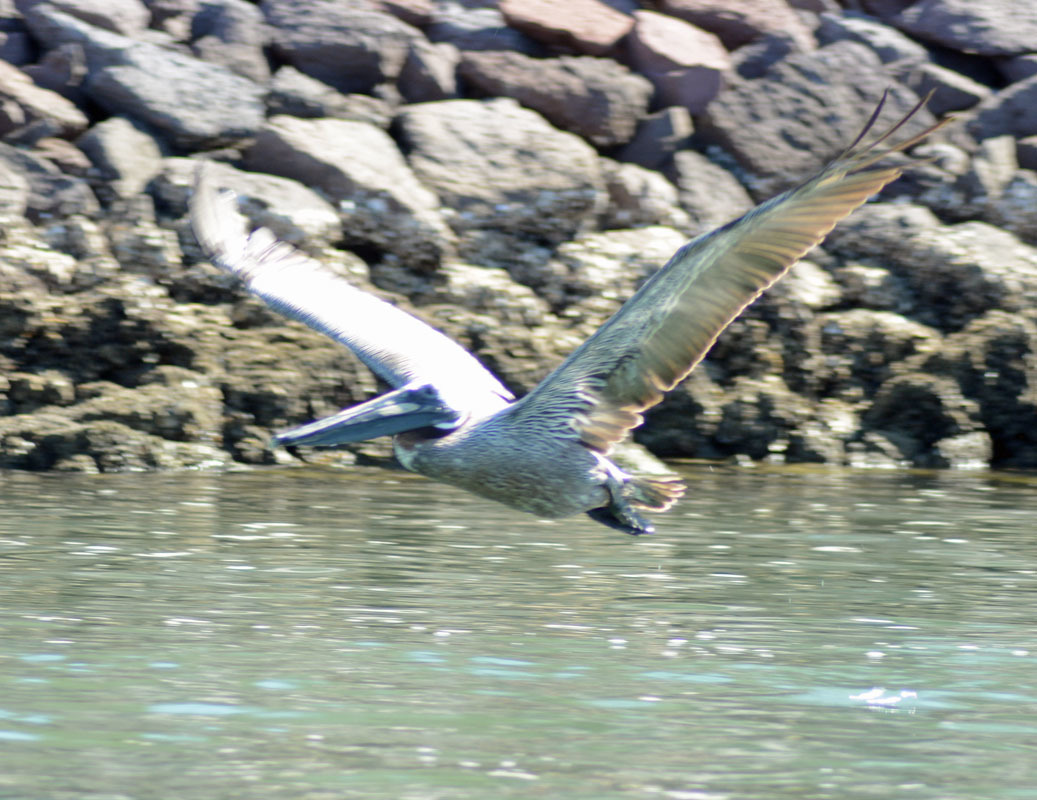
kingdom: Animalia
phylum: Chordata
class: Aves
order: Pelecaniformes
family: Pelecanidae
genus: Pelecanus
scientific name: Pelecanus occidentalis
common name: Brown pelican
